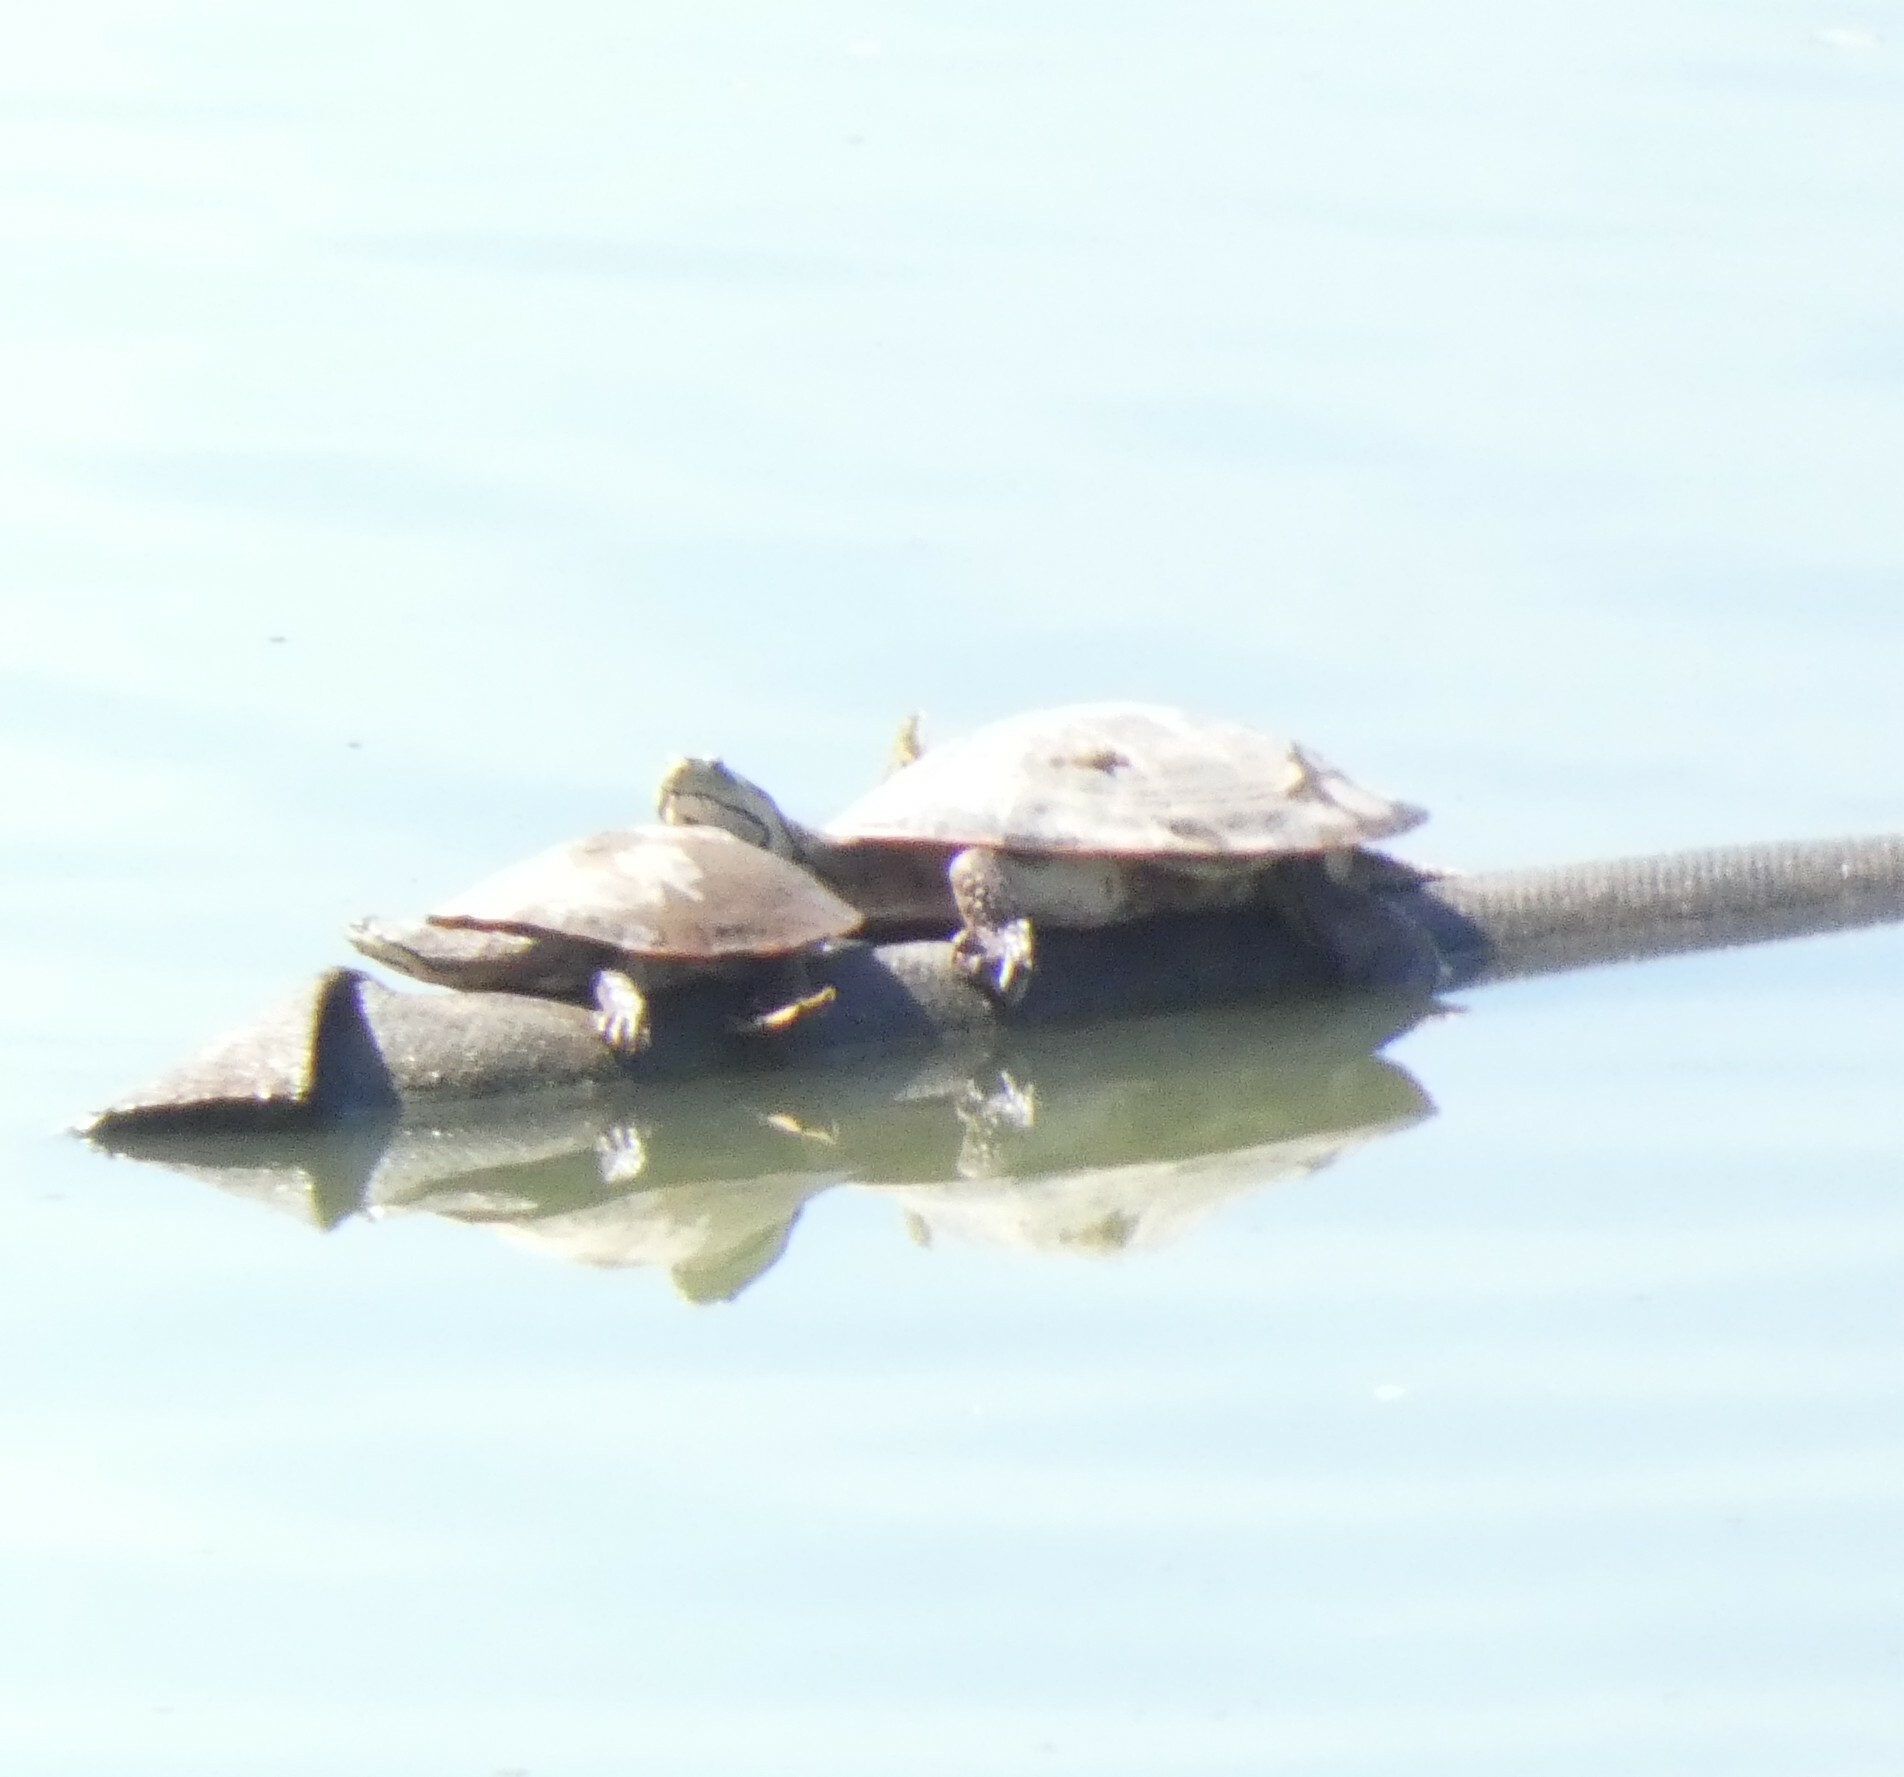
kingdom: Animalia
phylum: Chordata
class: Testudines
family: Chelidae
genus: Phrynops
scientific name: Phrynops geoffroanus
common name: Side-necked turtle of geoffroy
